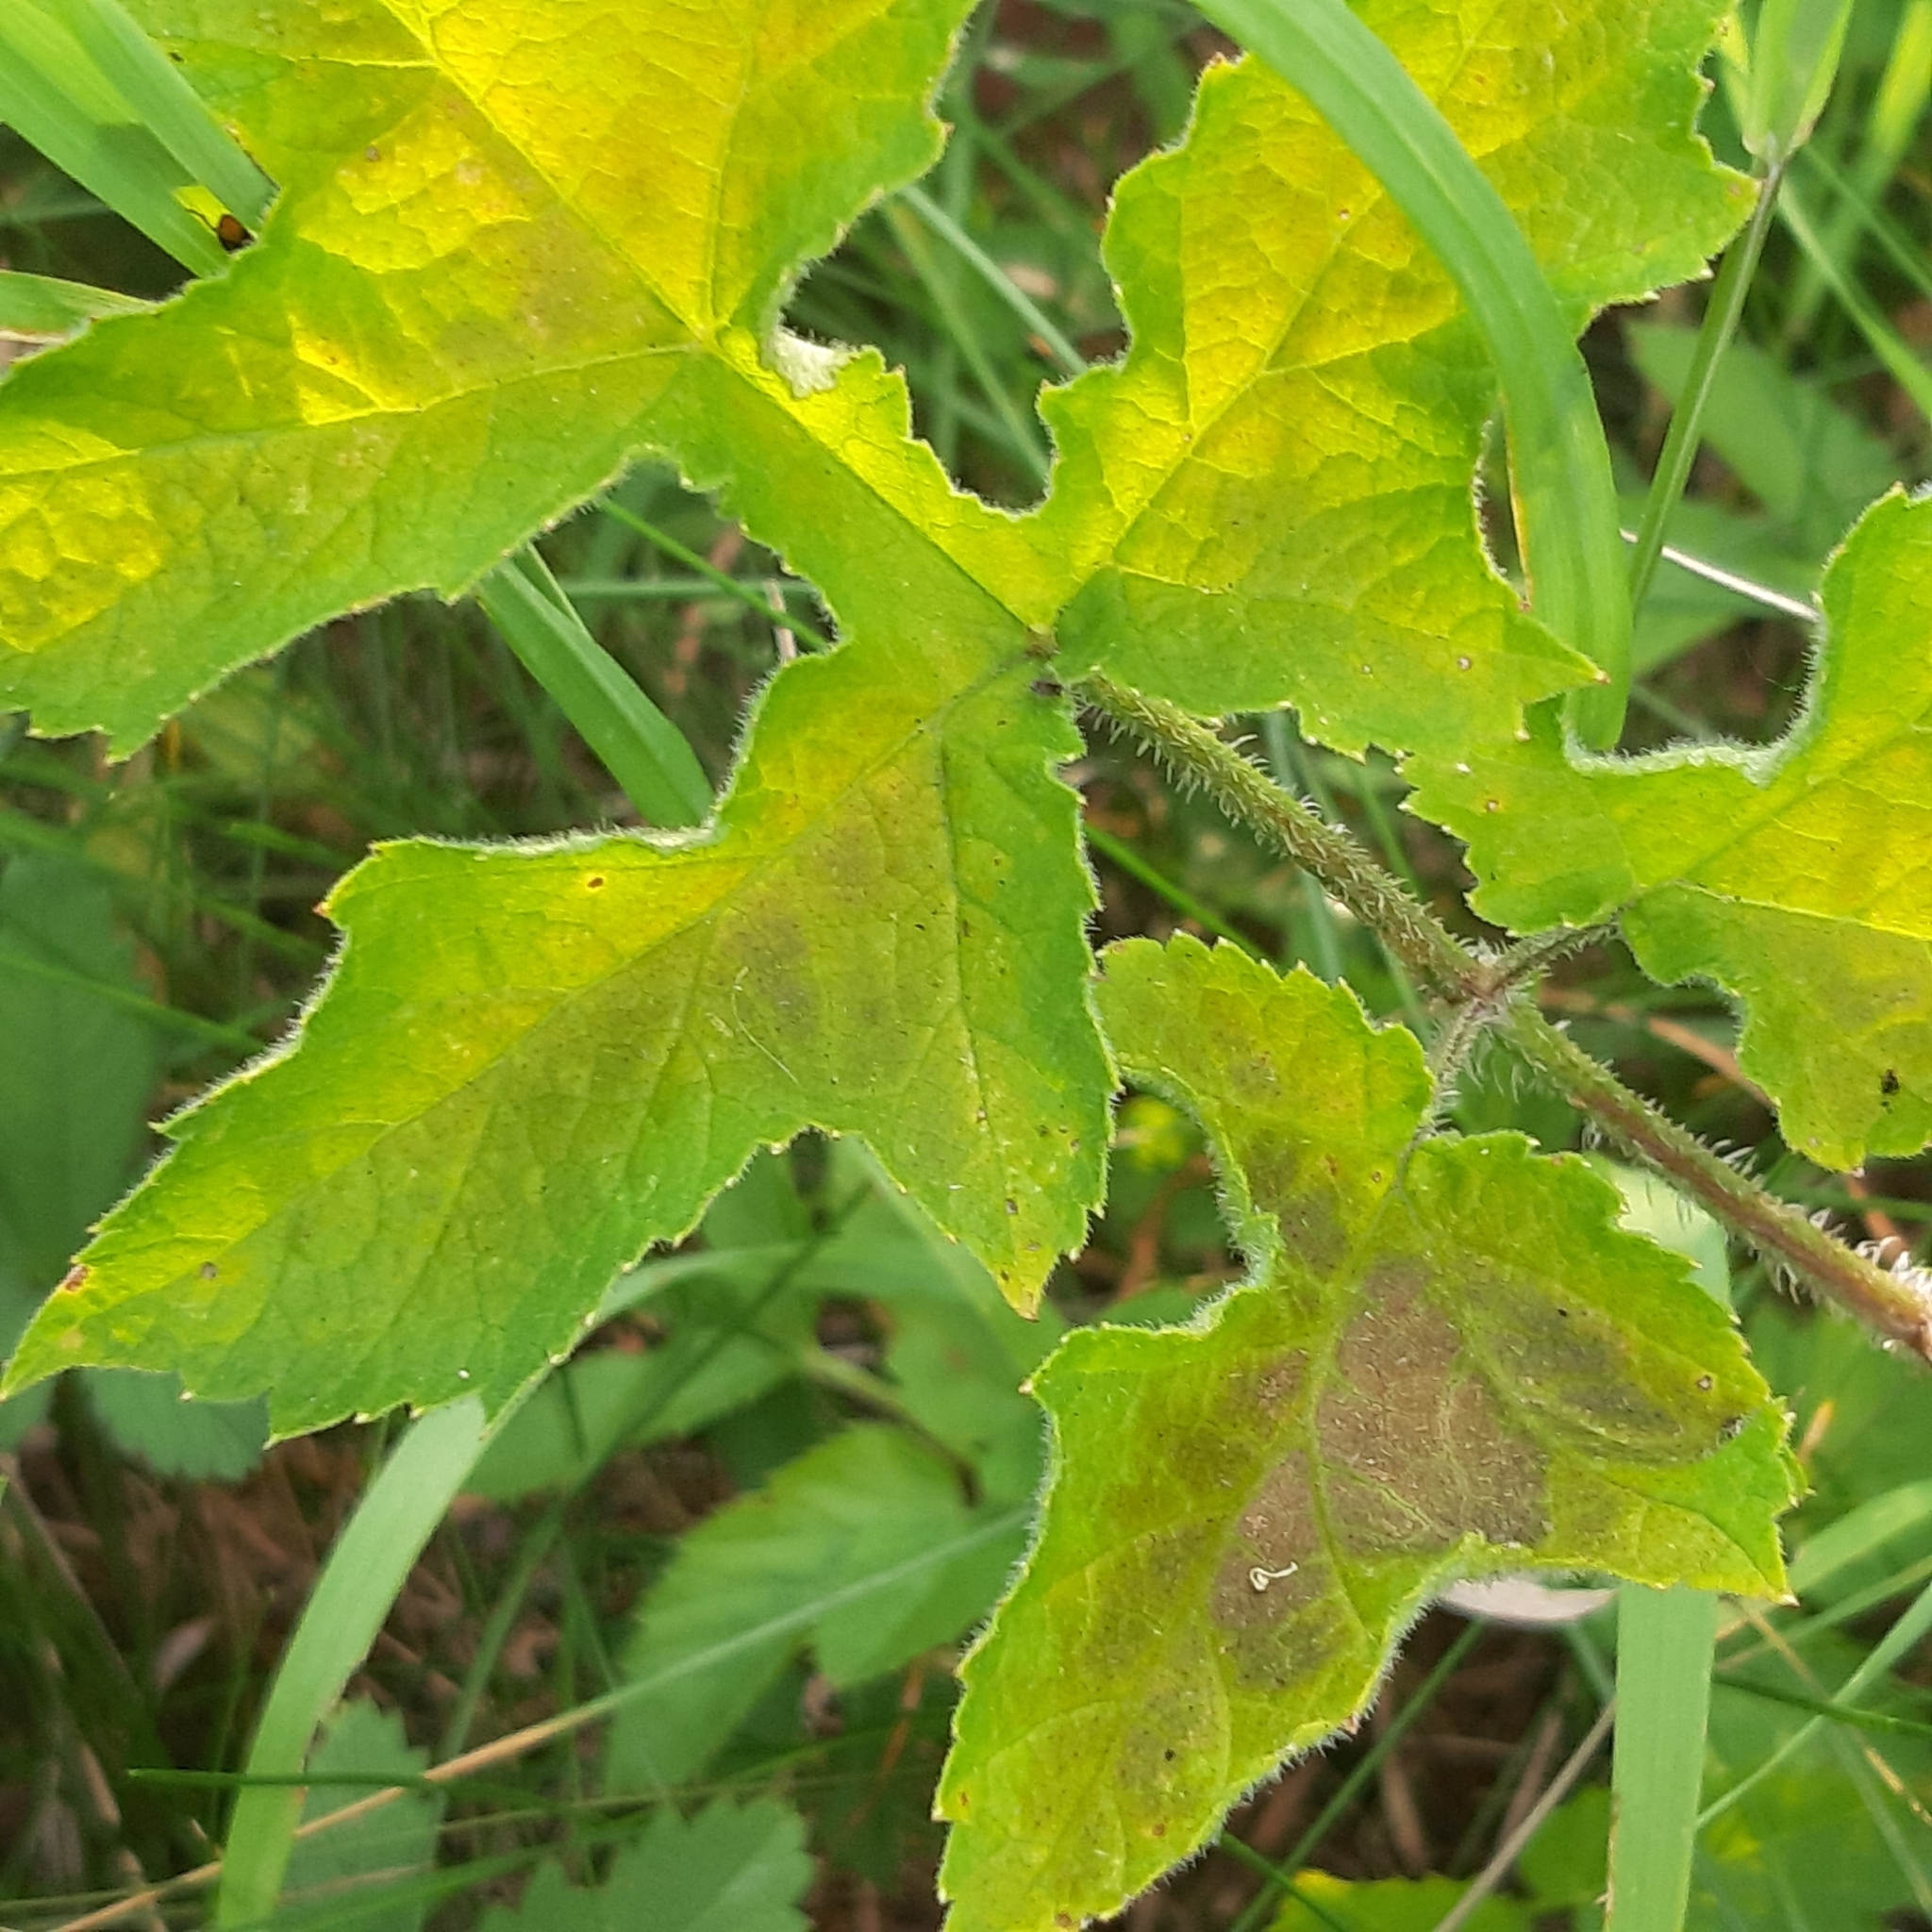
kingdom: Plantae
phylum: Tracheophyta
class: Magnoliopsida
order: Apiales
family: Apiaceae
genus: Heracleum
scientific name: Heracleum sphondylium
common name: Hogweed
